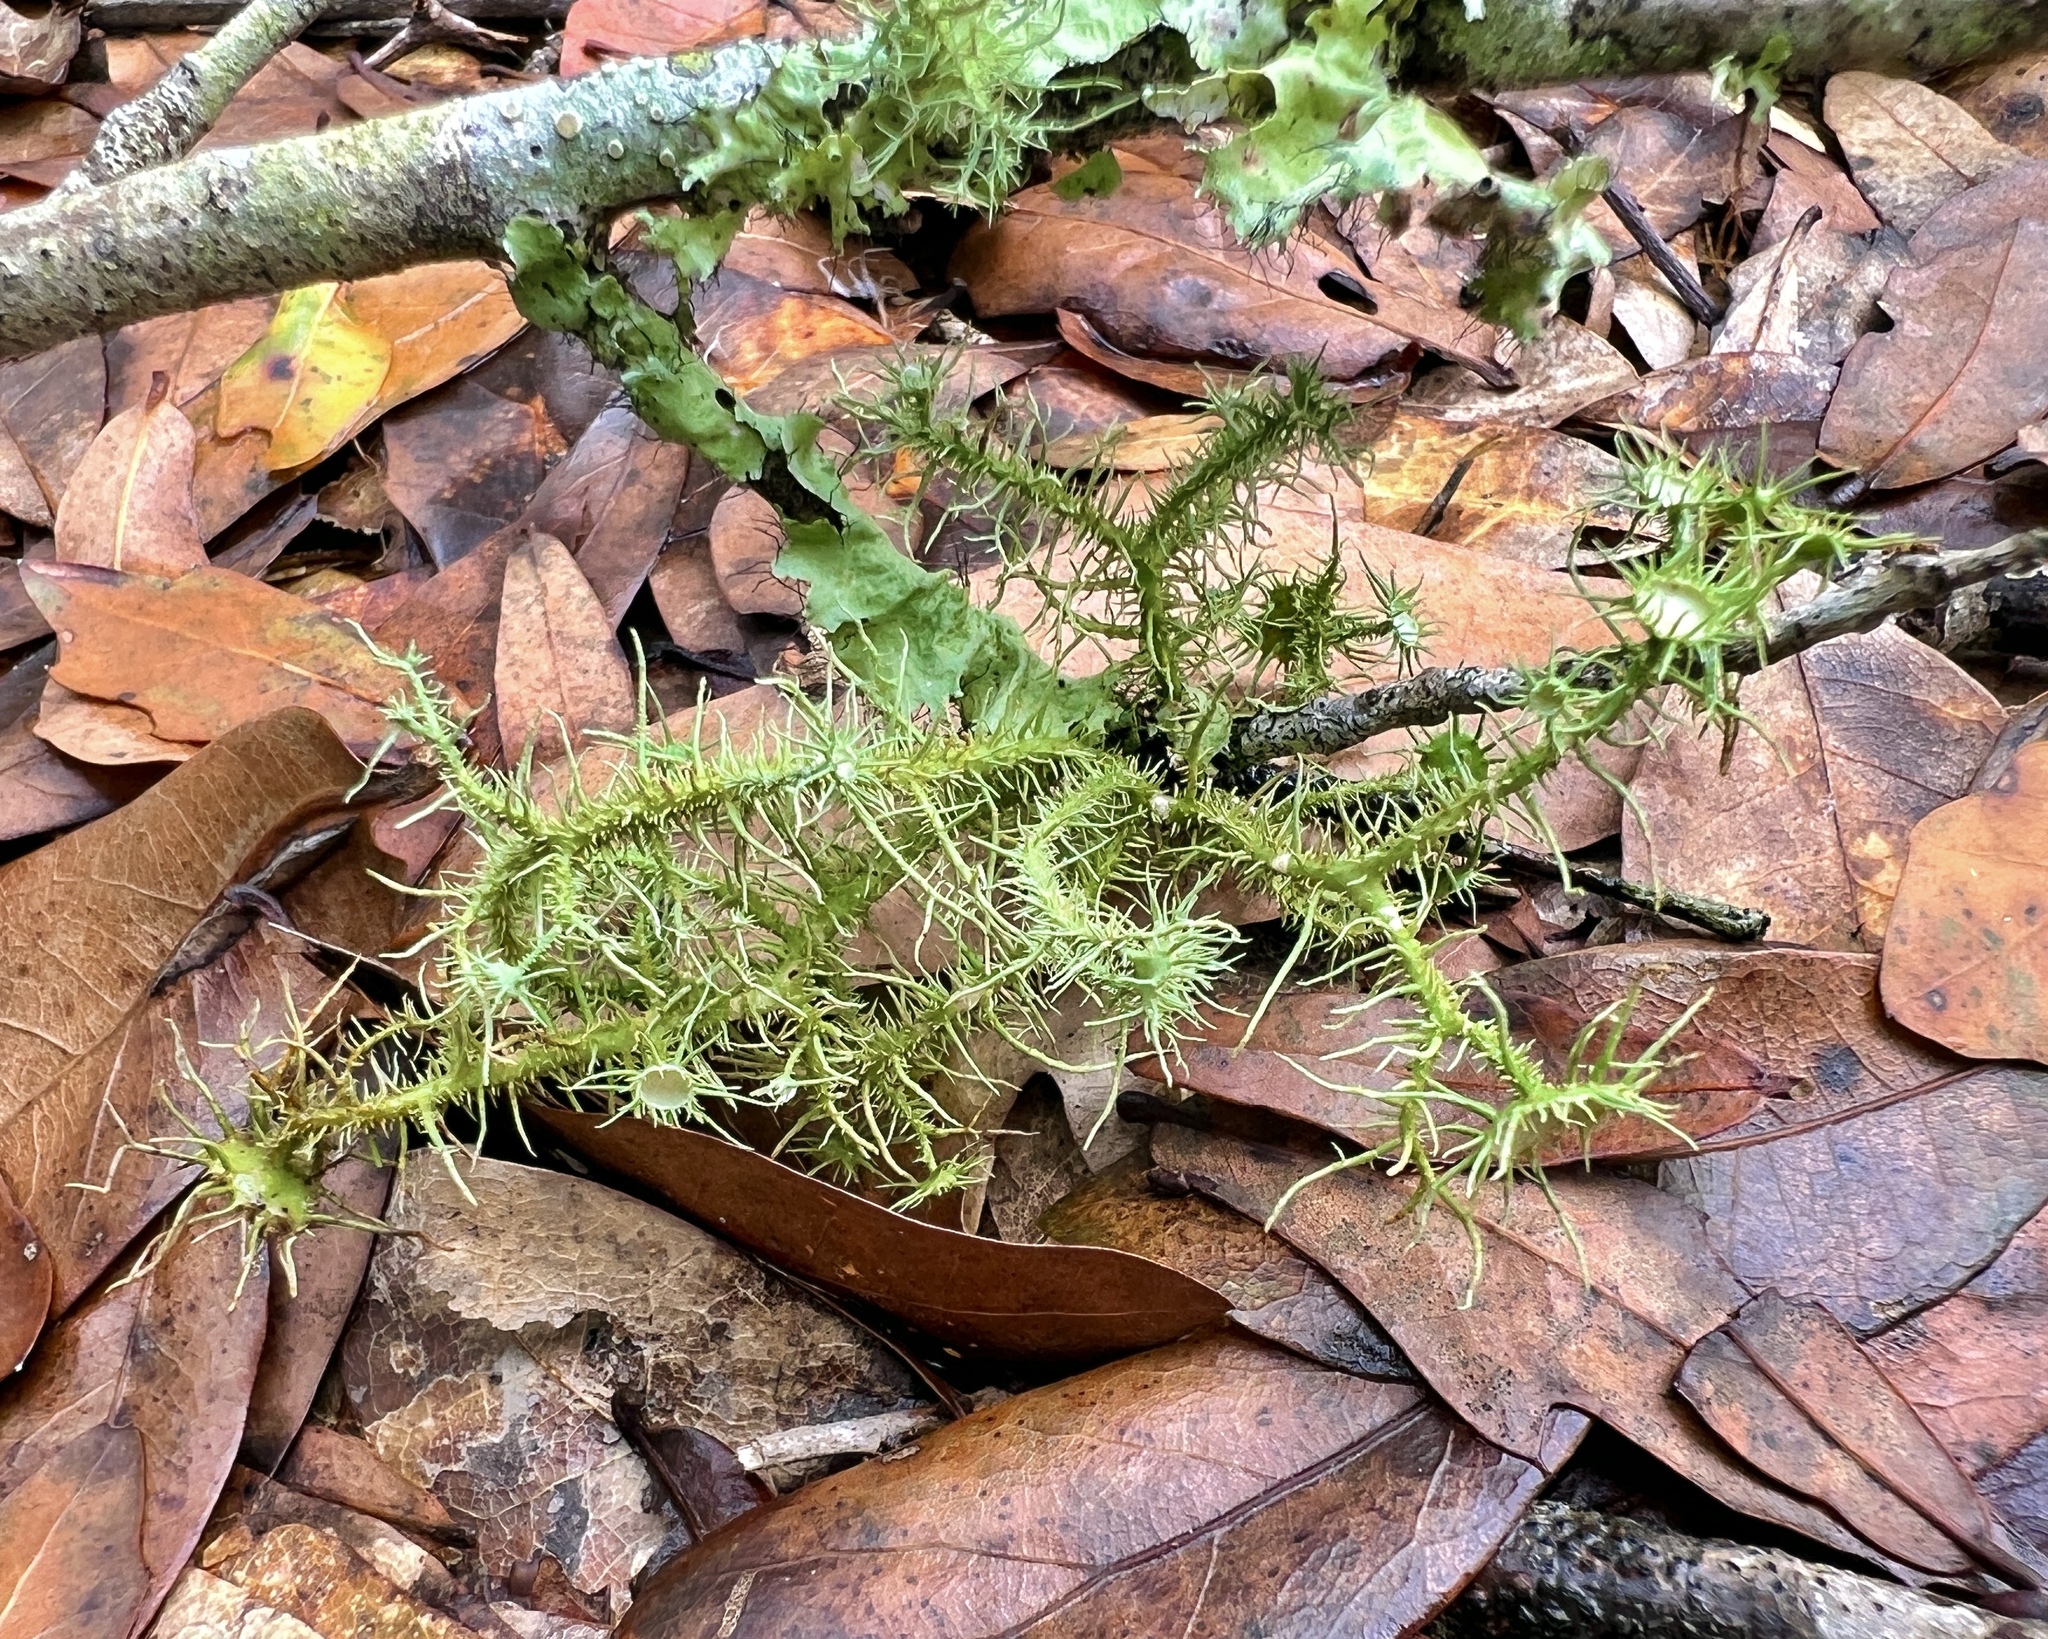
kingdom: Fungi
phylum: Ascomycota
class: Lecanoromycetes
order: Lecanorales
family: Parmeliaceae
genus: Usnea
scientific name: Usnea strigosa
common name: Bushy beard lichen
